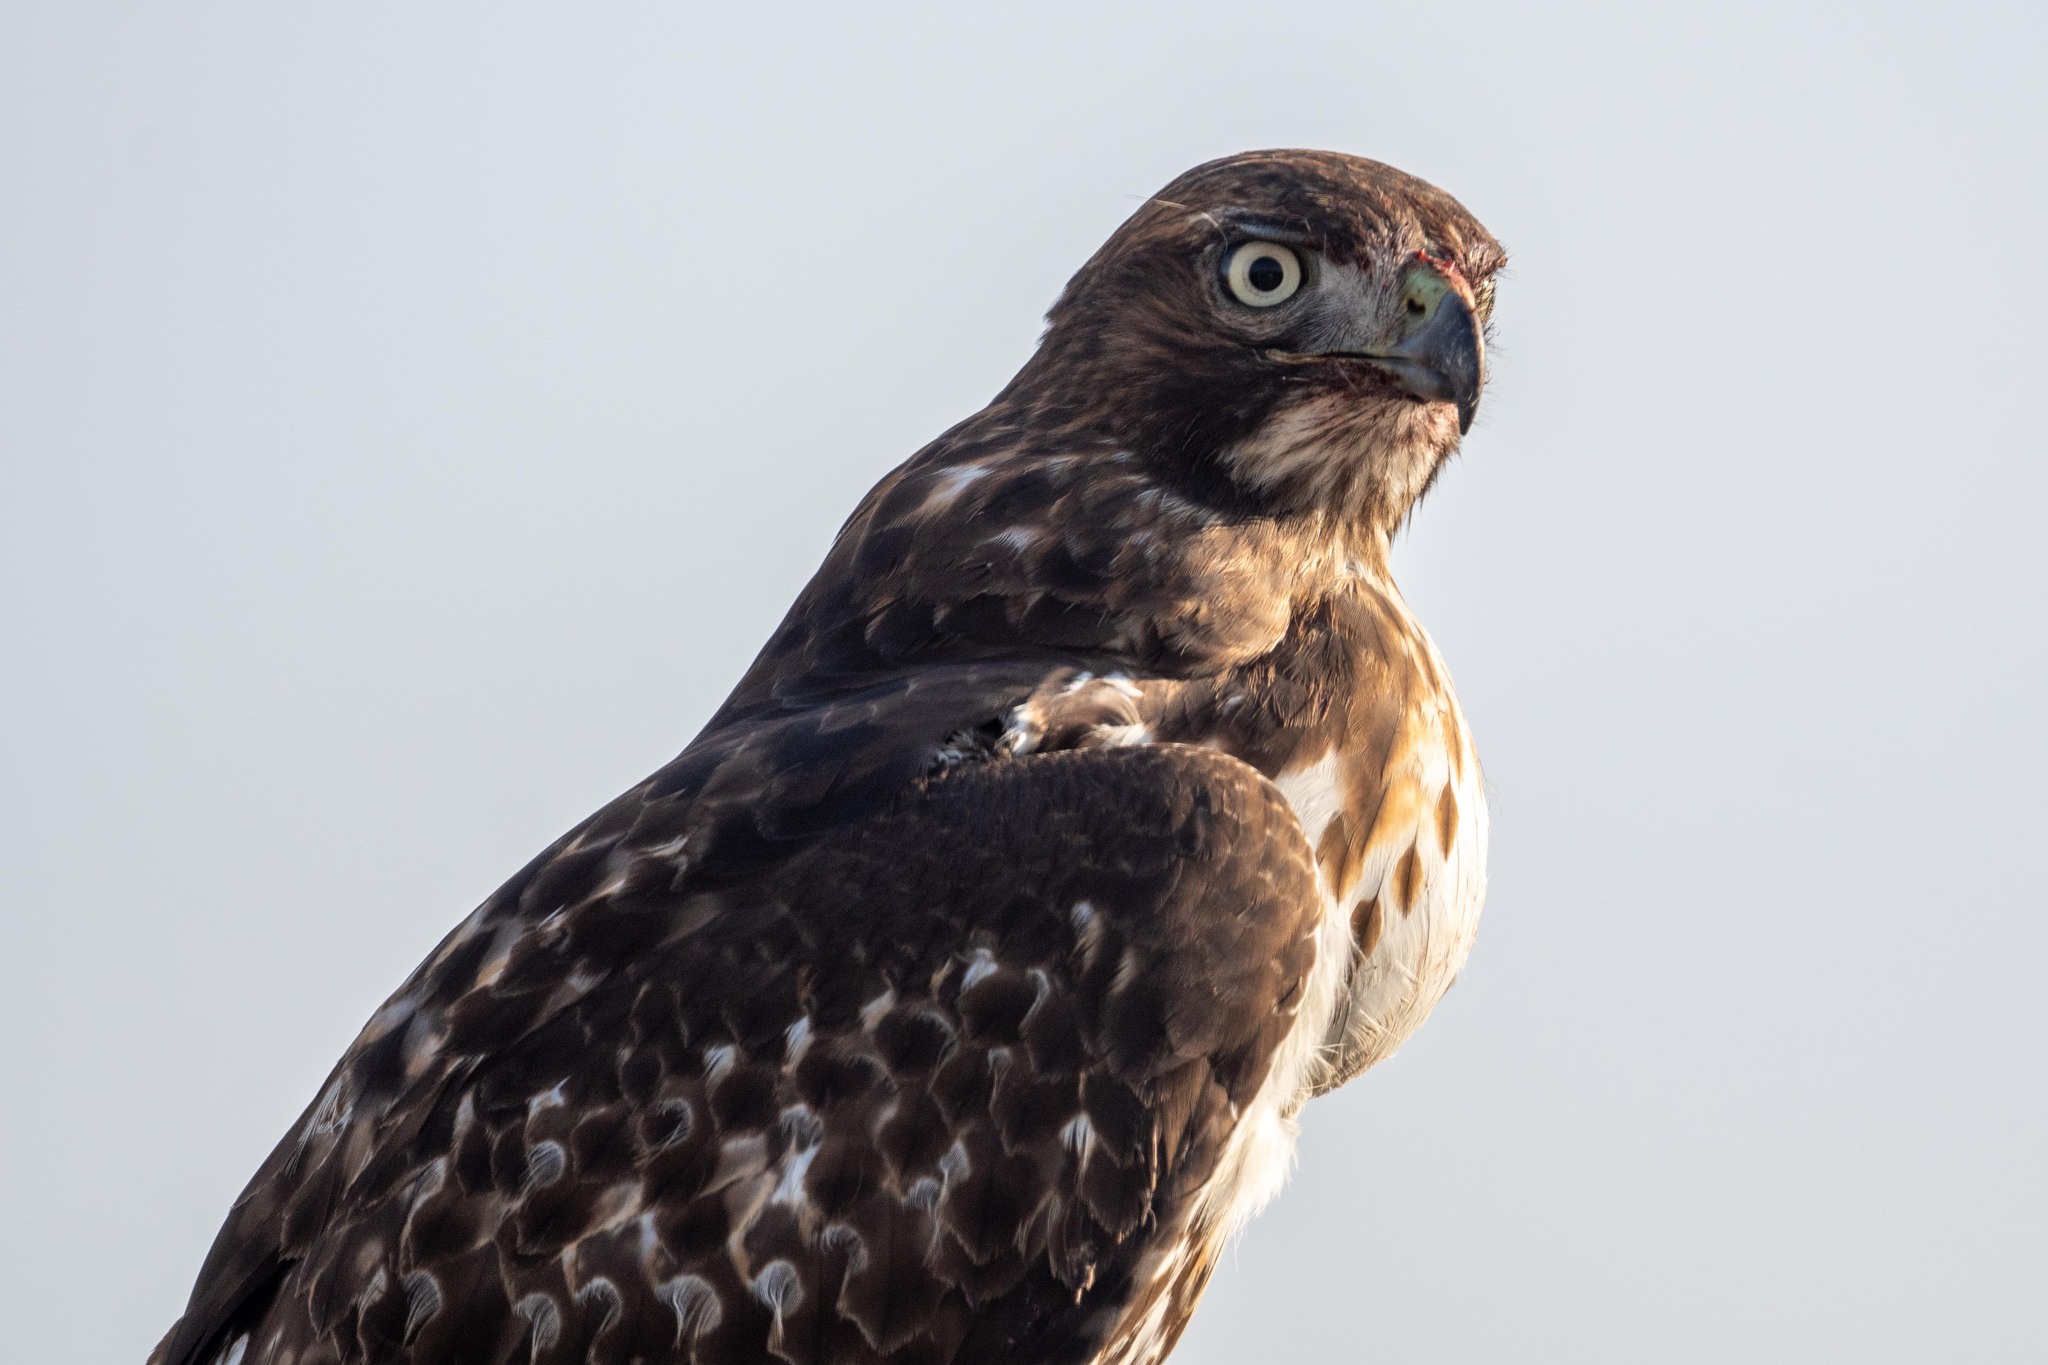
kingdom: Animalia
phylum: Chordata
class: Aves
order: Accipitriformes
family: Accipitridae
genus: Buteo
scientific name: Buteo jamaicensis
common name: Red-tailed hawk
